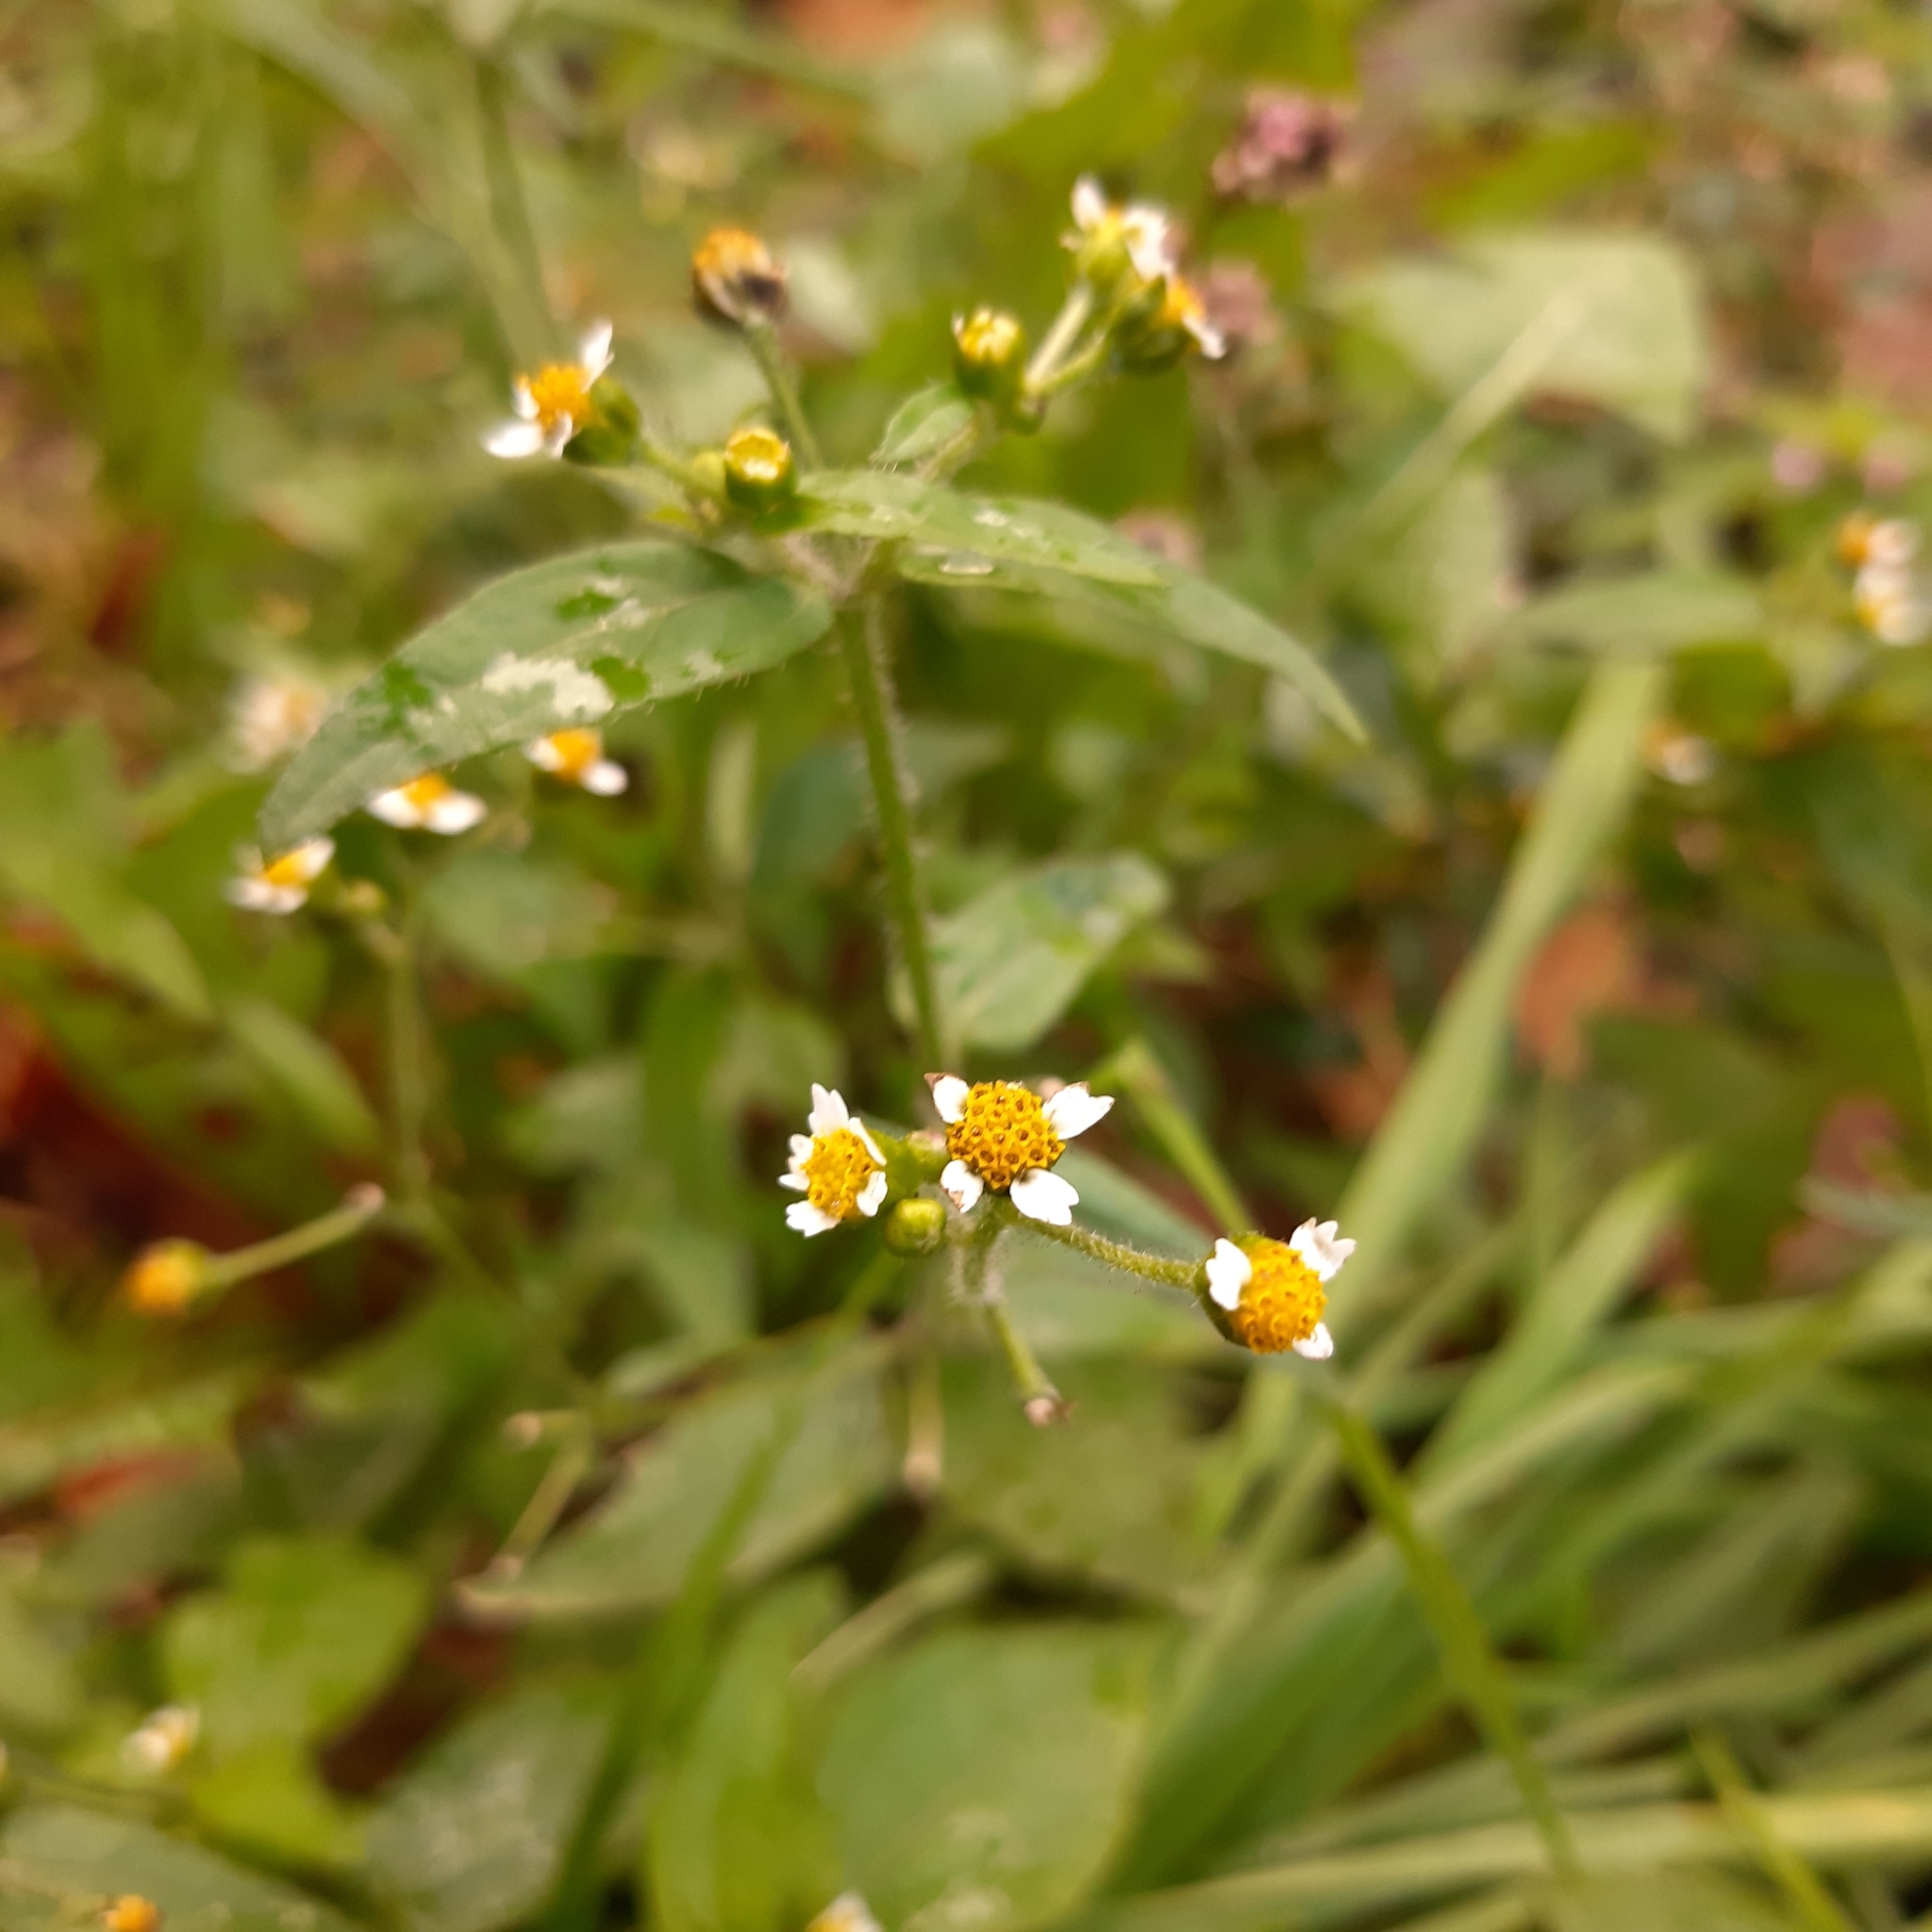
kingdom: Plantae
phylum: Tracheophyta
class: Magnoliopsida
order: Asterales
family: Asteraceae
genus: Galinsoga
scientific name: Galinsoga quadriradiata
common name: Shaggy soldier
